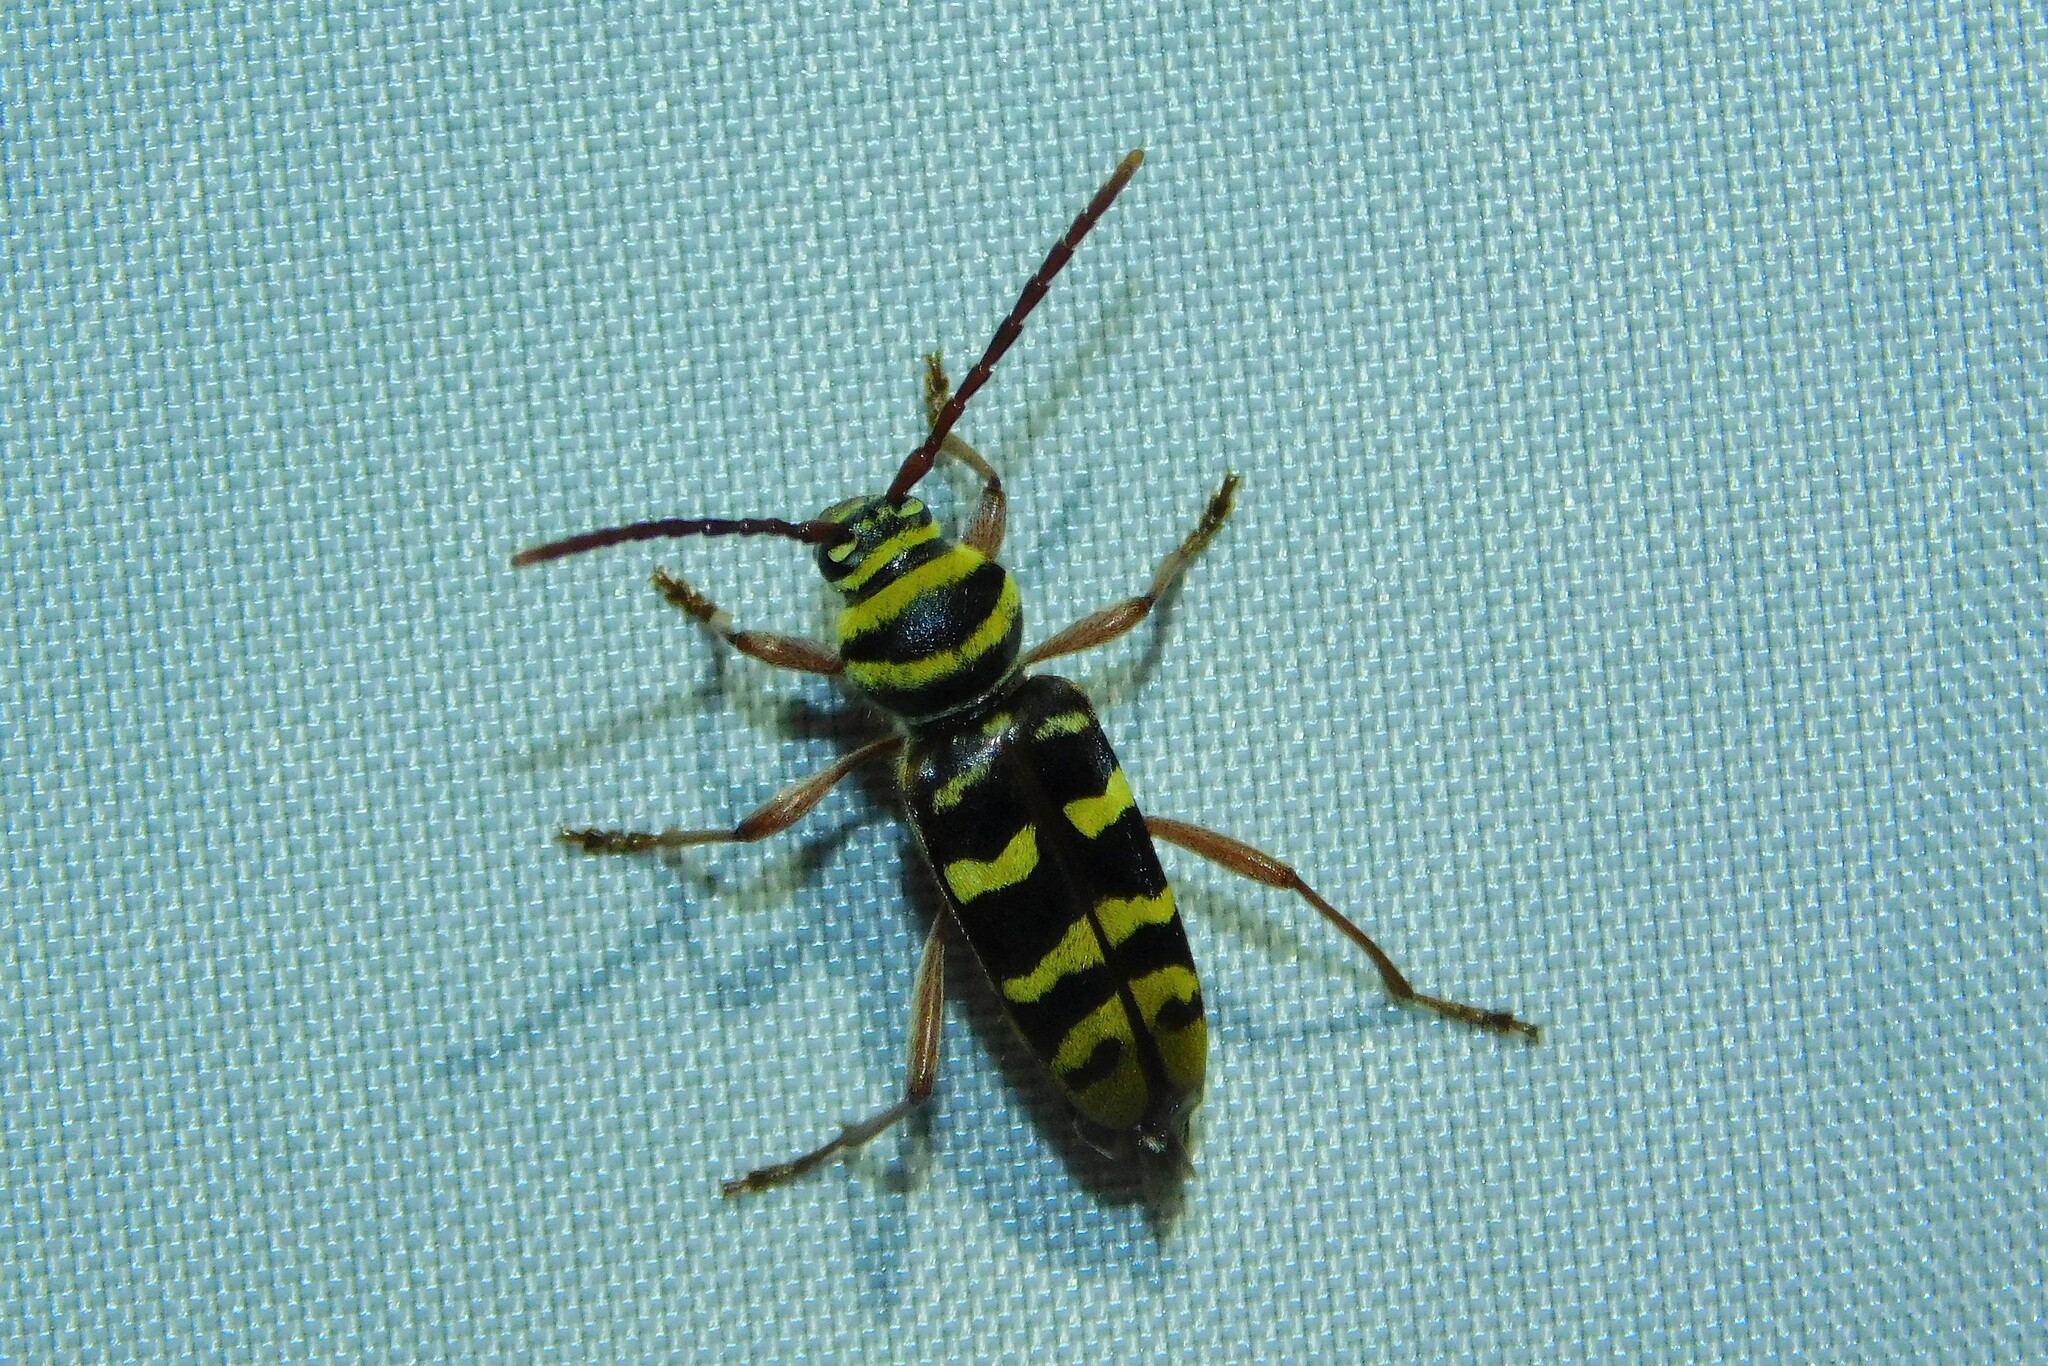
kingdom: Animalia
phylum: Arthropoda
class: Insecta
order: Coleoptera
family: Cerambycidae
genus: Plagionotus
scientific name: Plagionotus detritus
